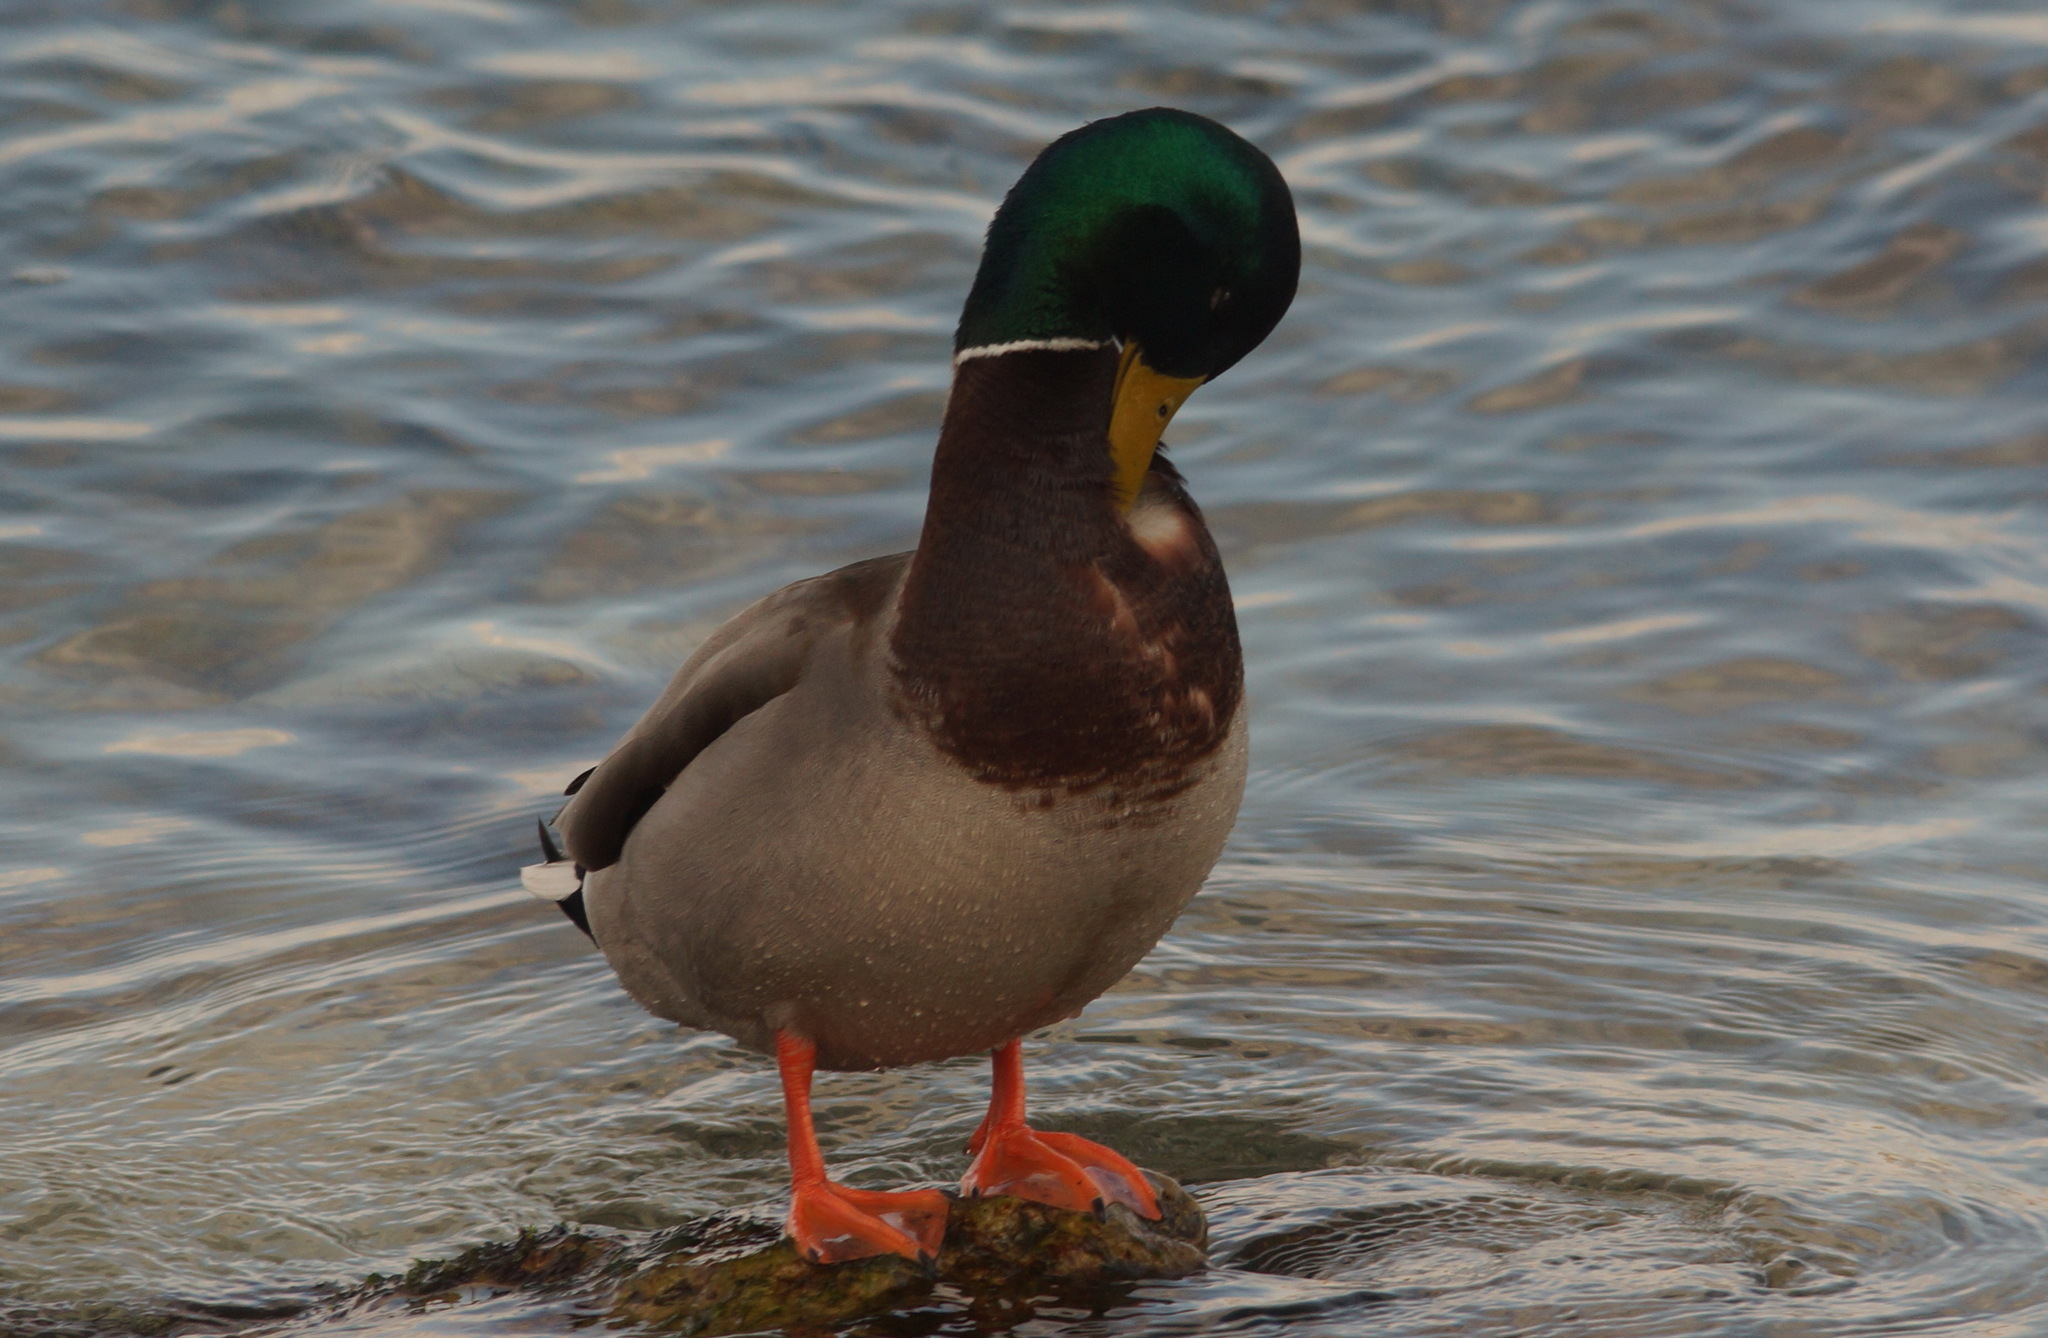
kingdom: Animalia
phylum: Chordata
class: Aves
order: Anseriformes
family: Anatidae
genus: Anas
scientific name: Anas platyrhynchos
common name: Mallard
